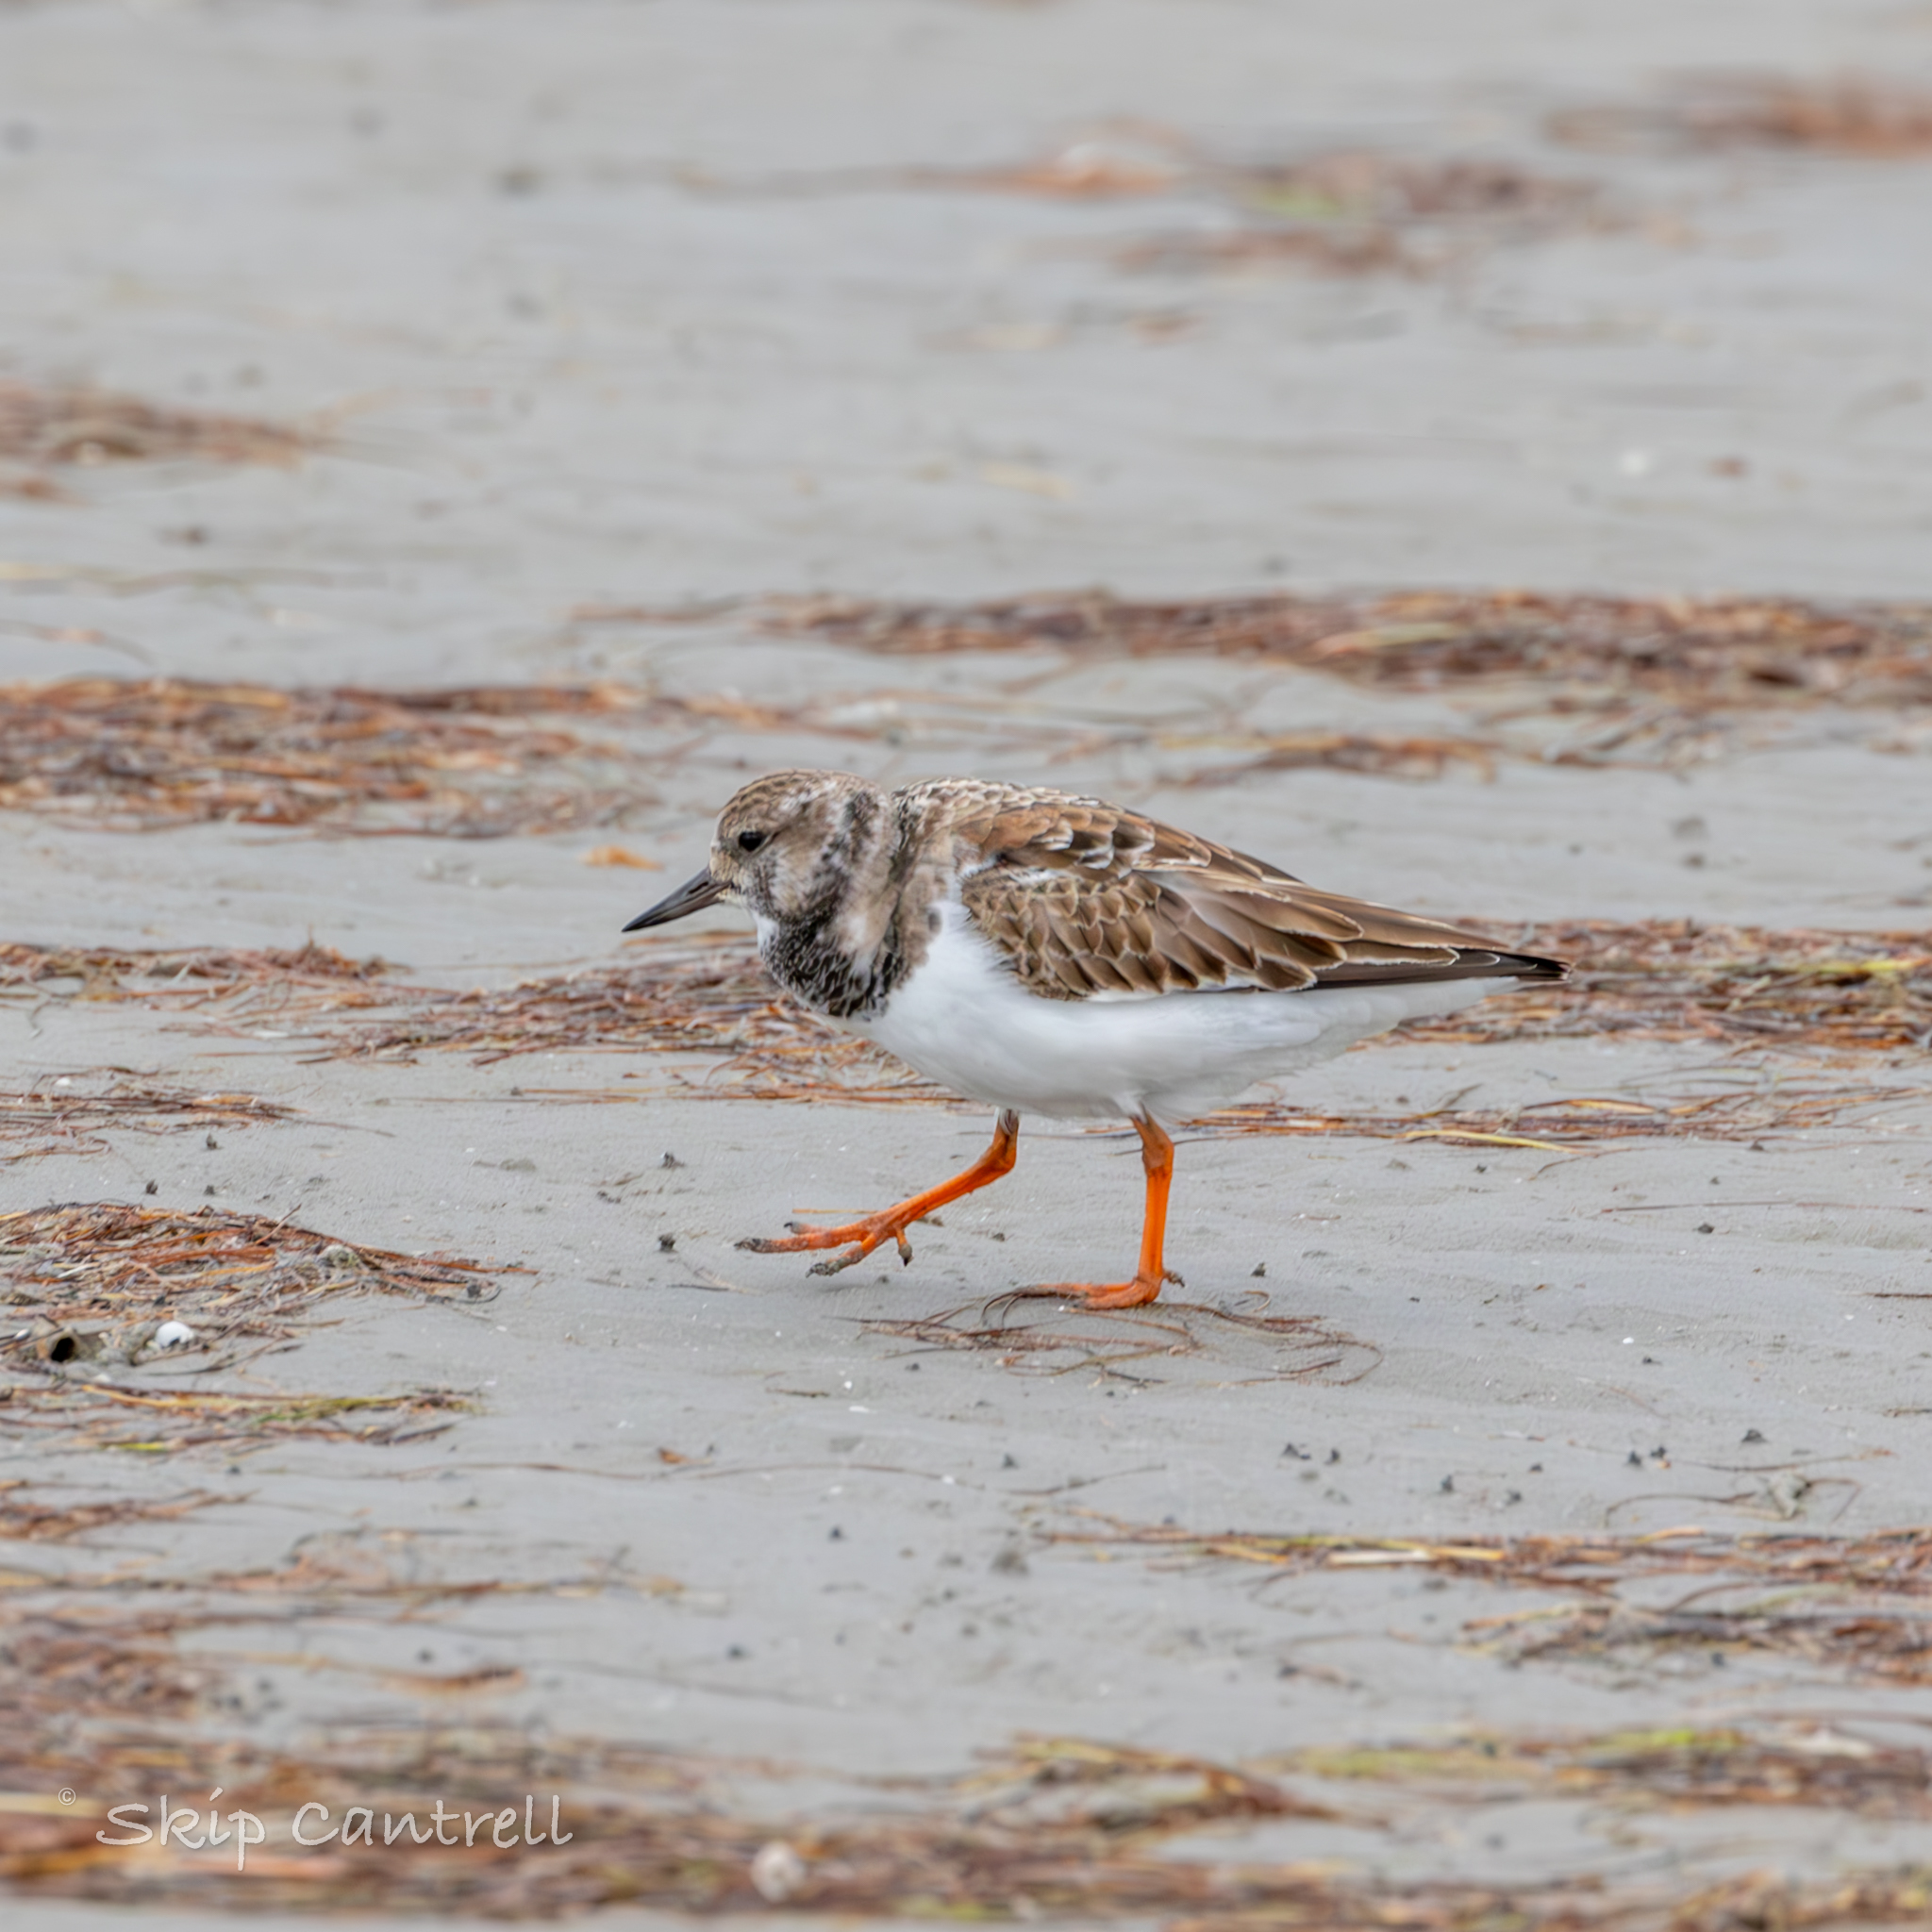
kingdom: Animalia
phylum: Chordata
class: Aves
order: Charadriiformes
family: Scolopacidae
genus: Arenaria
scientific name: Arenaria interpres
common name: Ruddy turnstone
